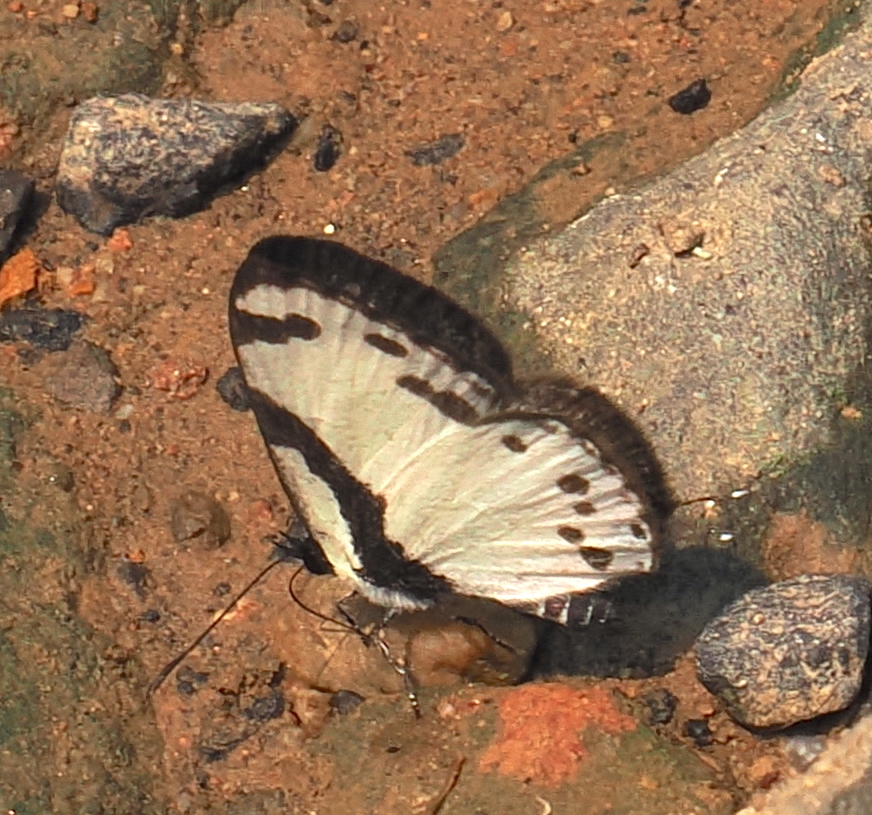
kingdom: Animalia
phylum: Arthropoda
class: Insecta
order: Lepidoptera
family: Lycaenidae
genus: Caleta
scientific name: Caleta roxus
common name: Straight pierrot
